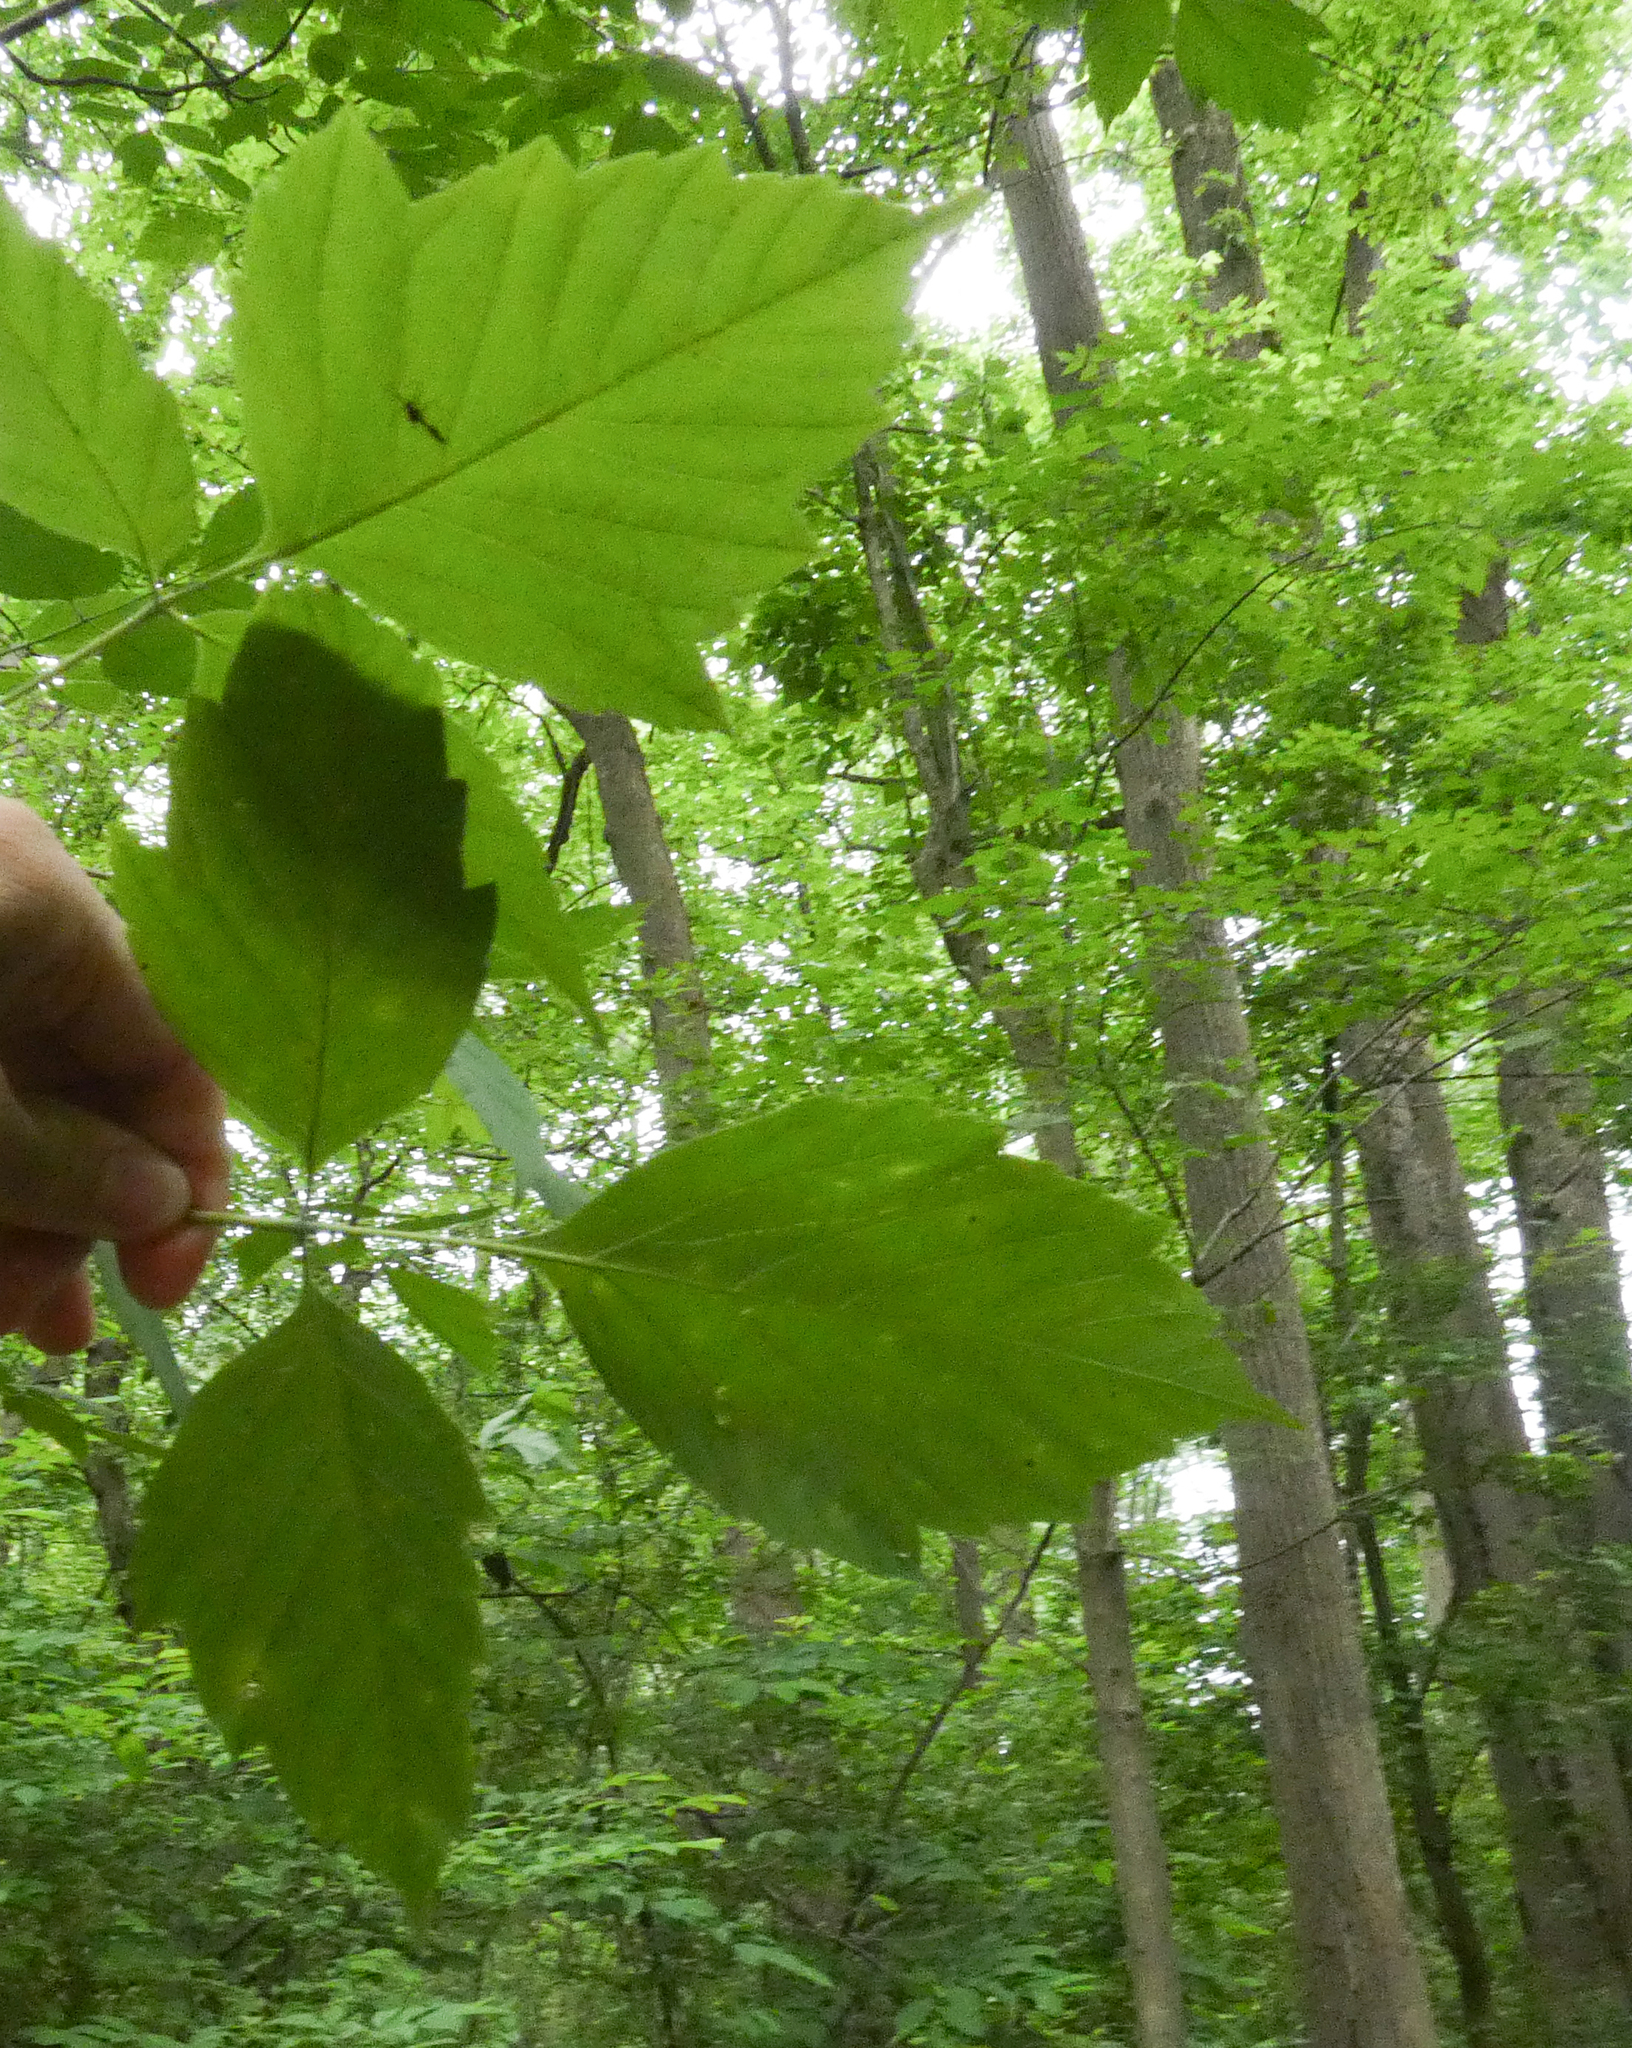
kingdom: Plantae
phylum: Tracheophyta
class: Magnoliopsida
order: Sapindales
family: Sapindaceae
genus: Acer
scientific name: Acer negundo
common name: Ashleaf maple
